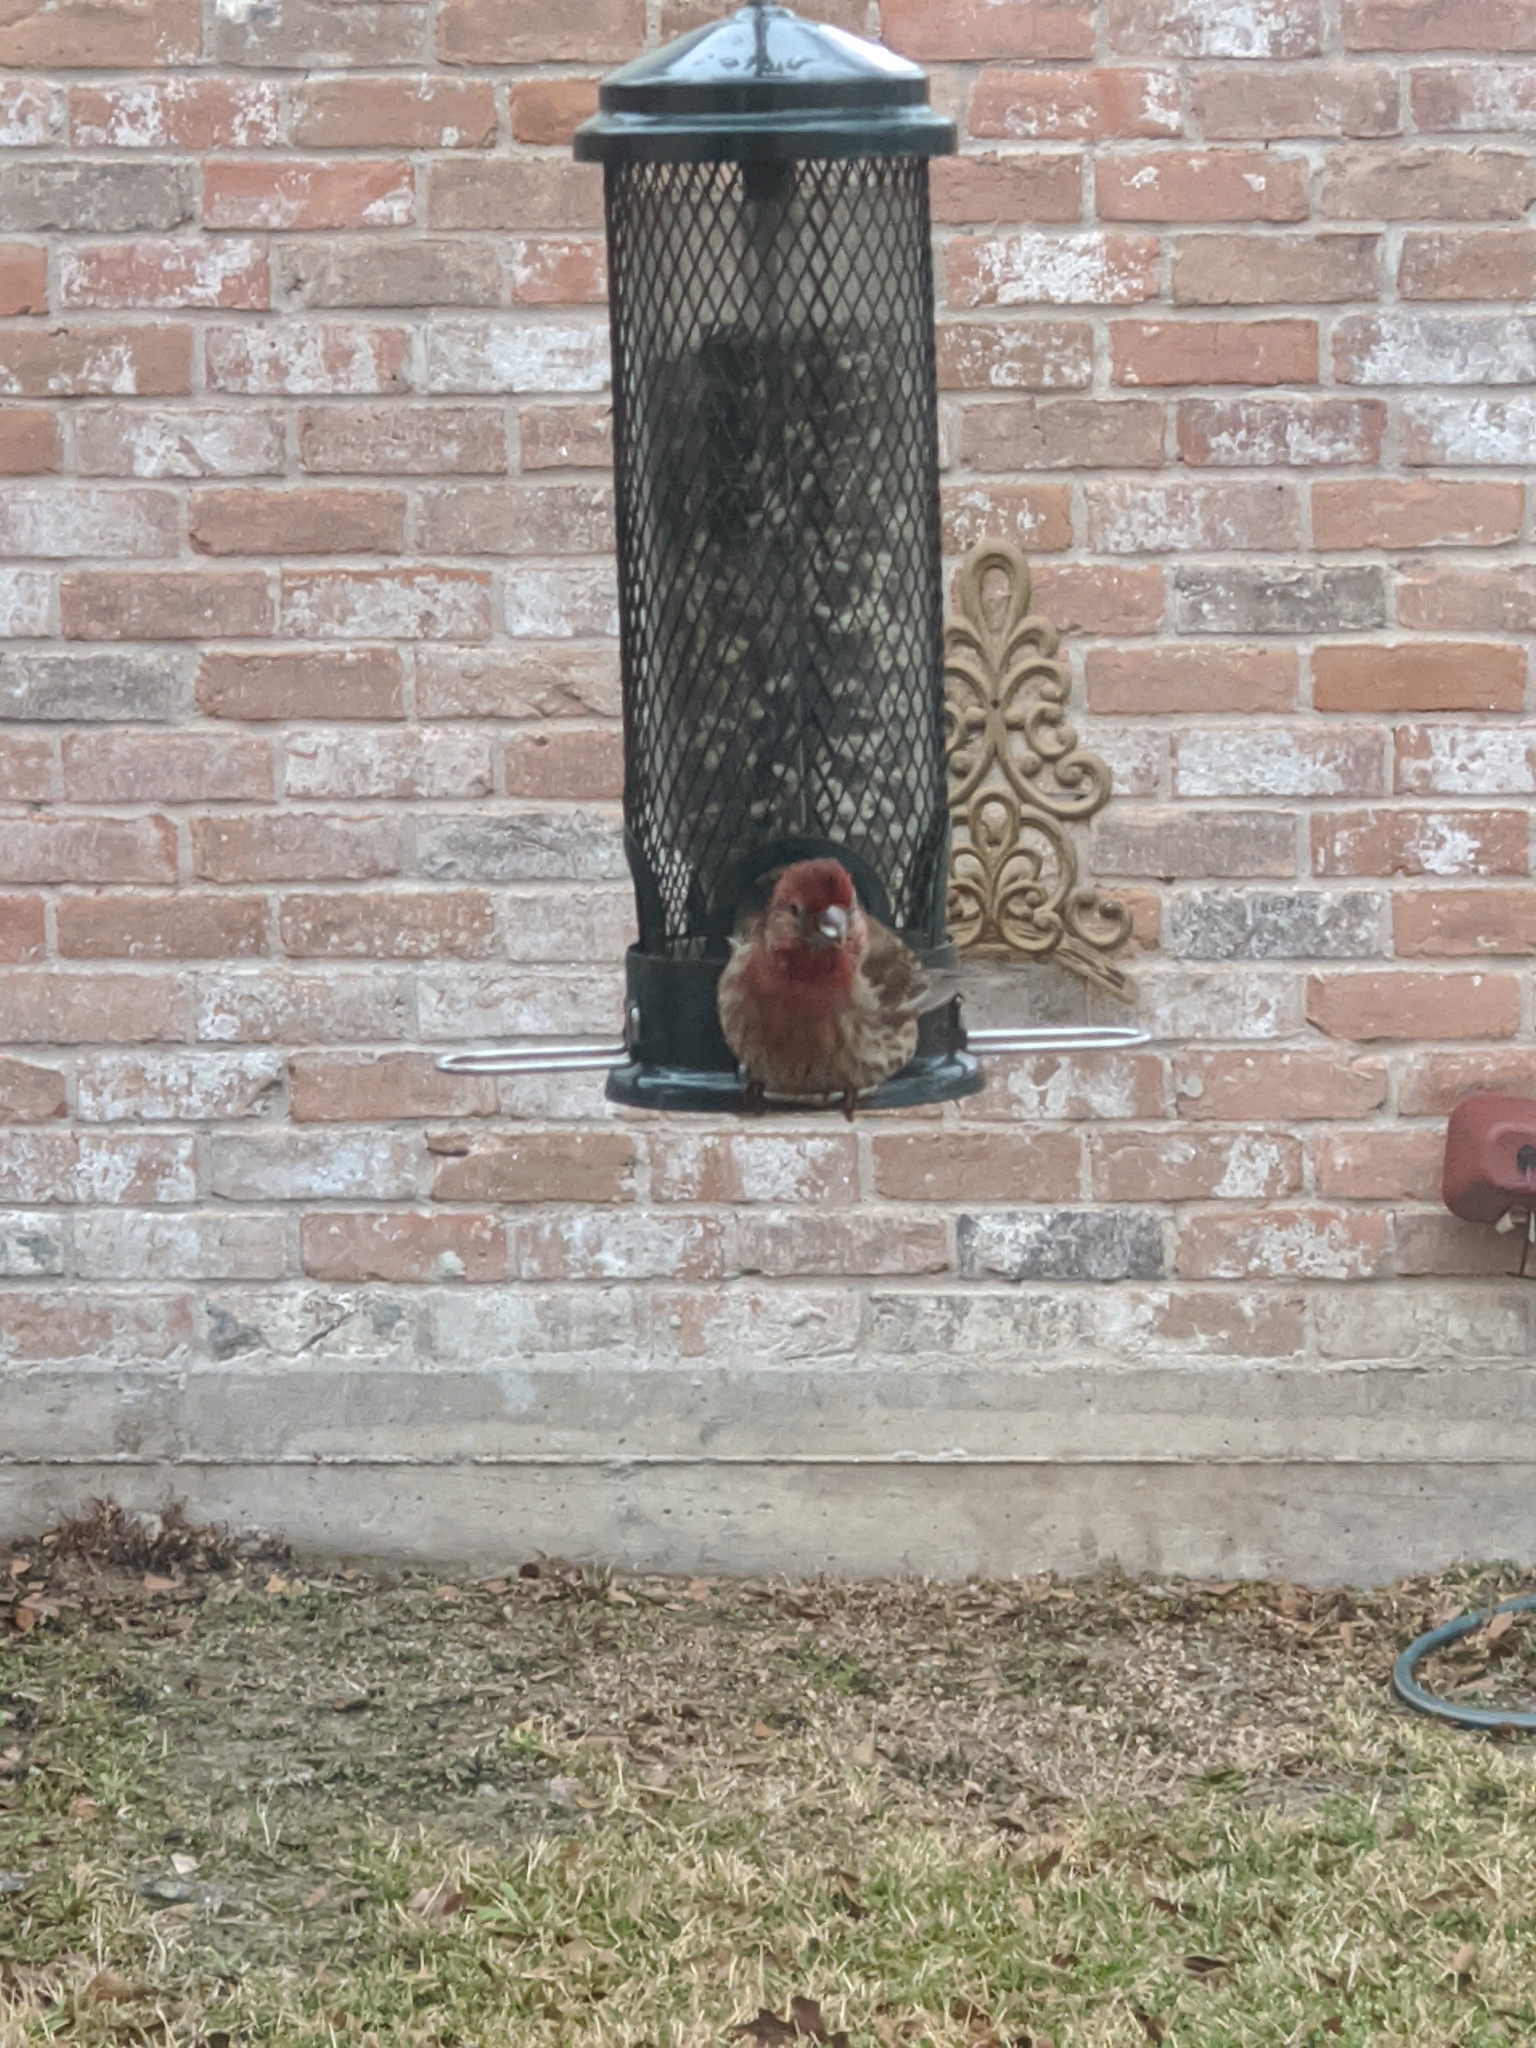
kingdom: Animalia
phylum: Chordata
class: Aves
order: Passeriformes
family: Fringillidae
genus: Haemorhous
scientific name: Haemorhous mexicanus
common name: House finch
